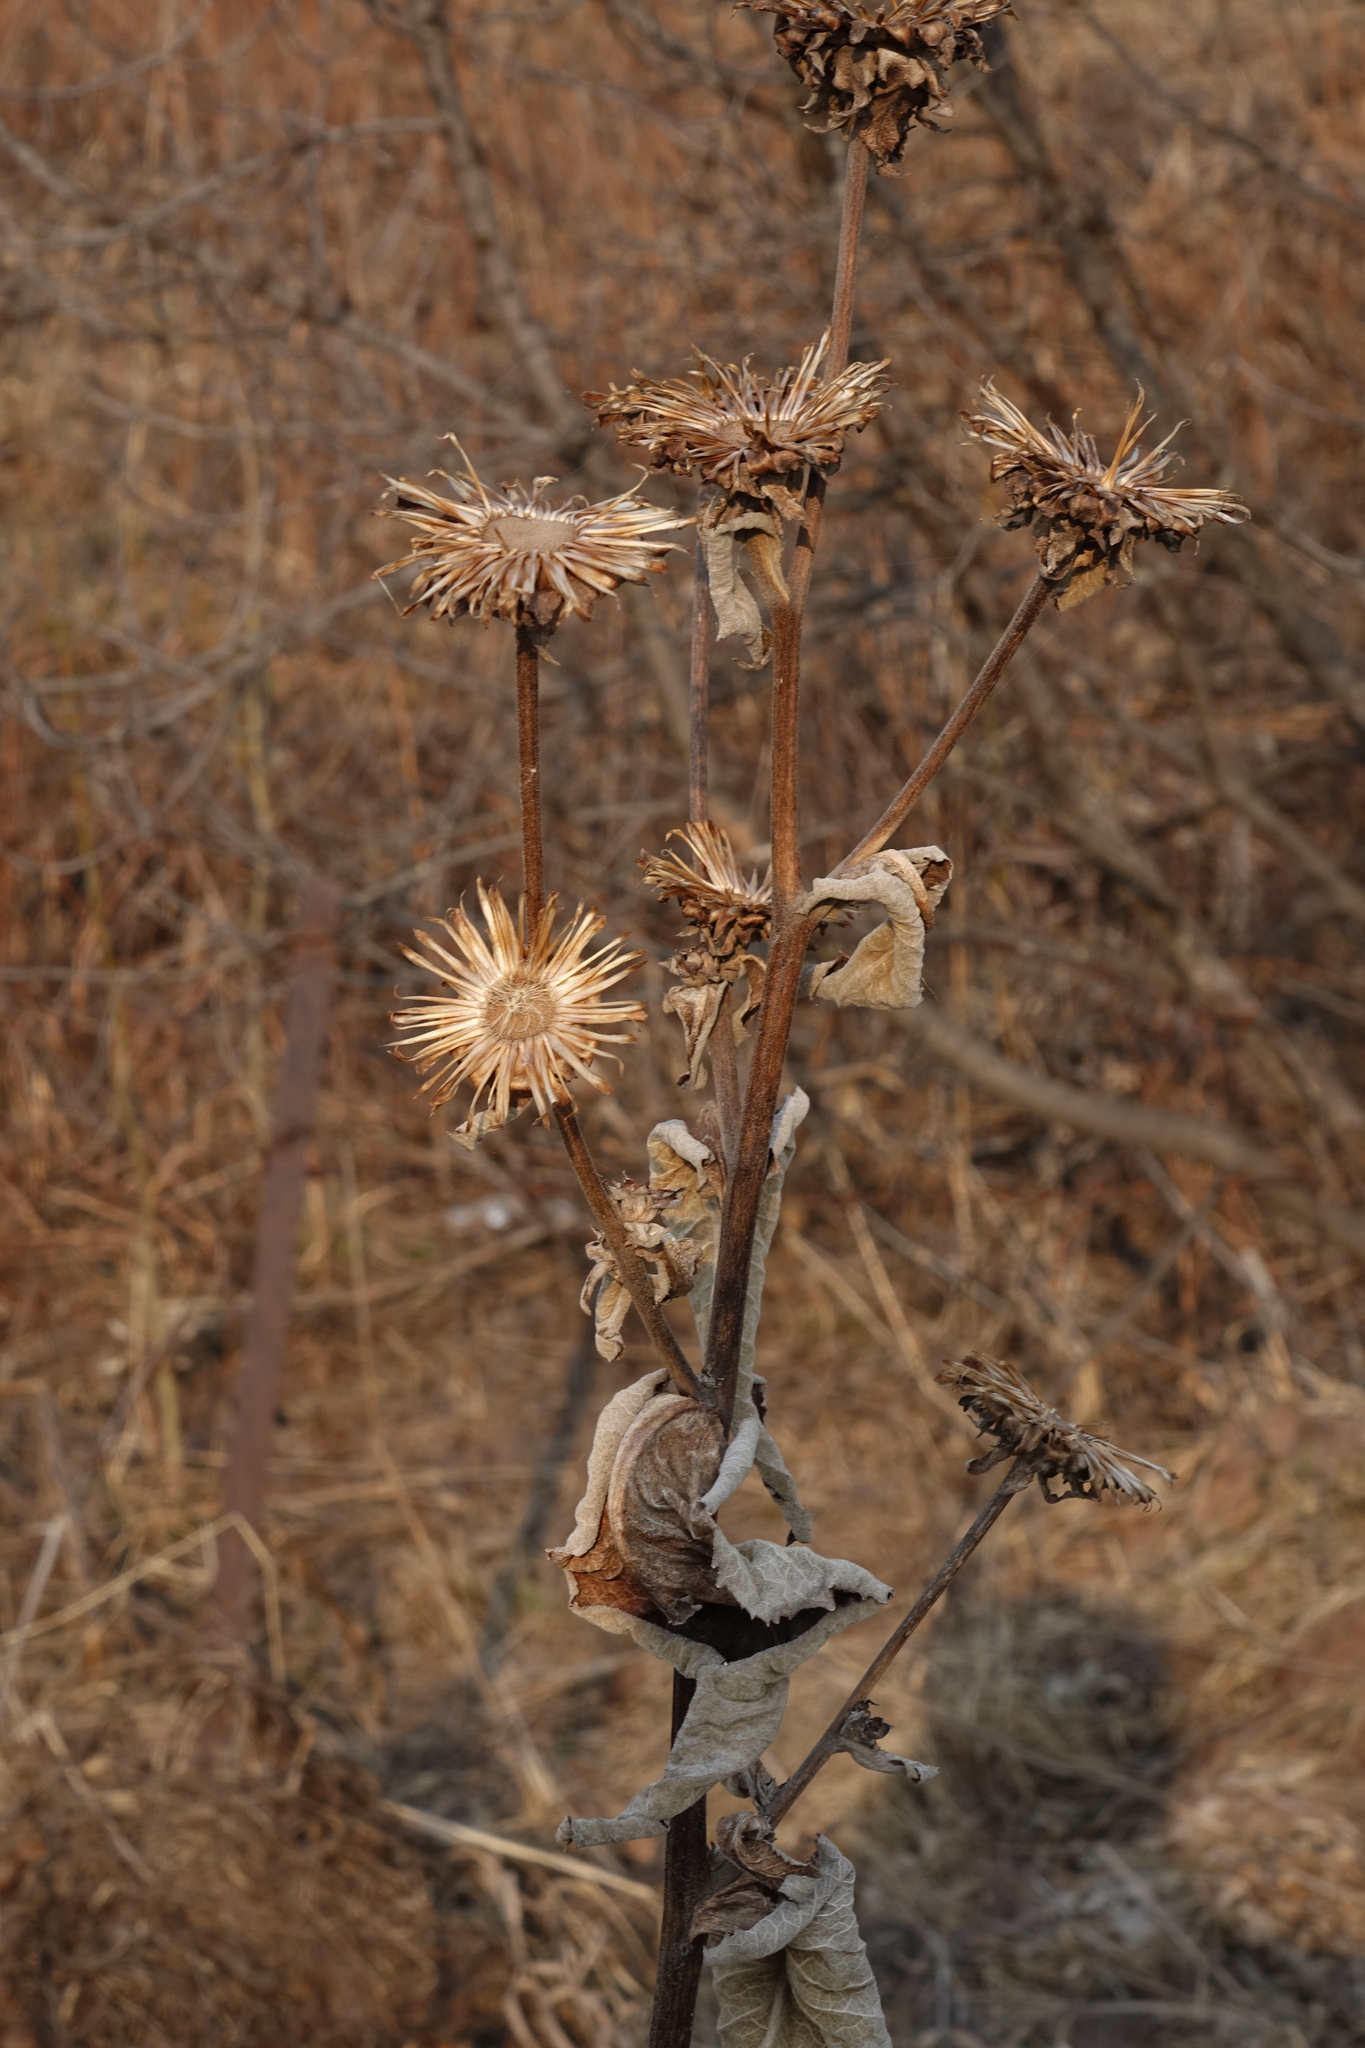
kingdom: Plantae
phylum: Tracheophyta
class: Magnoliopsida
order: Asterales
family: Asteraceae
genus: Inula
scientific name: Inula helenium
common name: Elecampane
